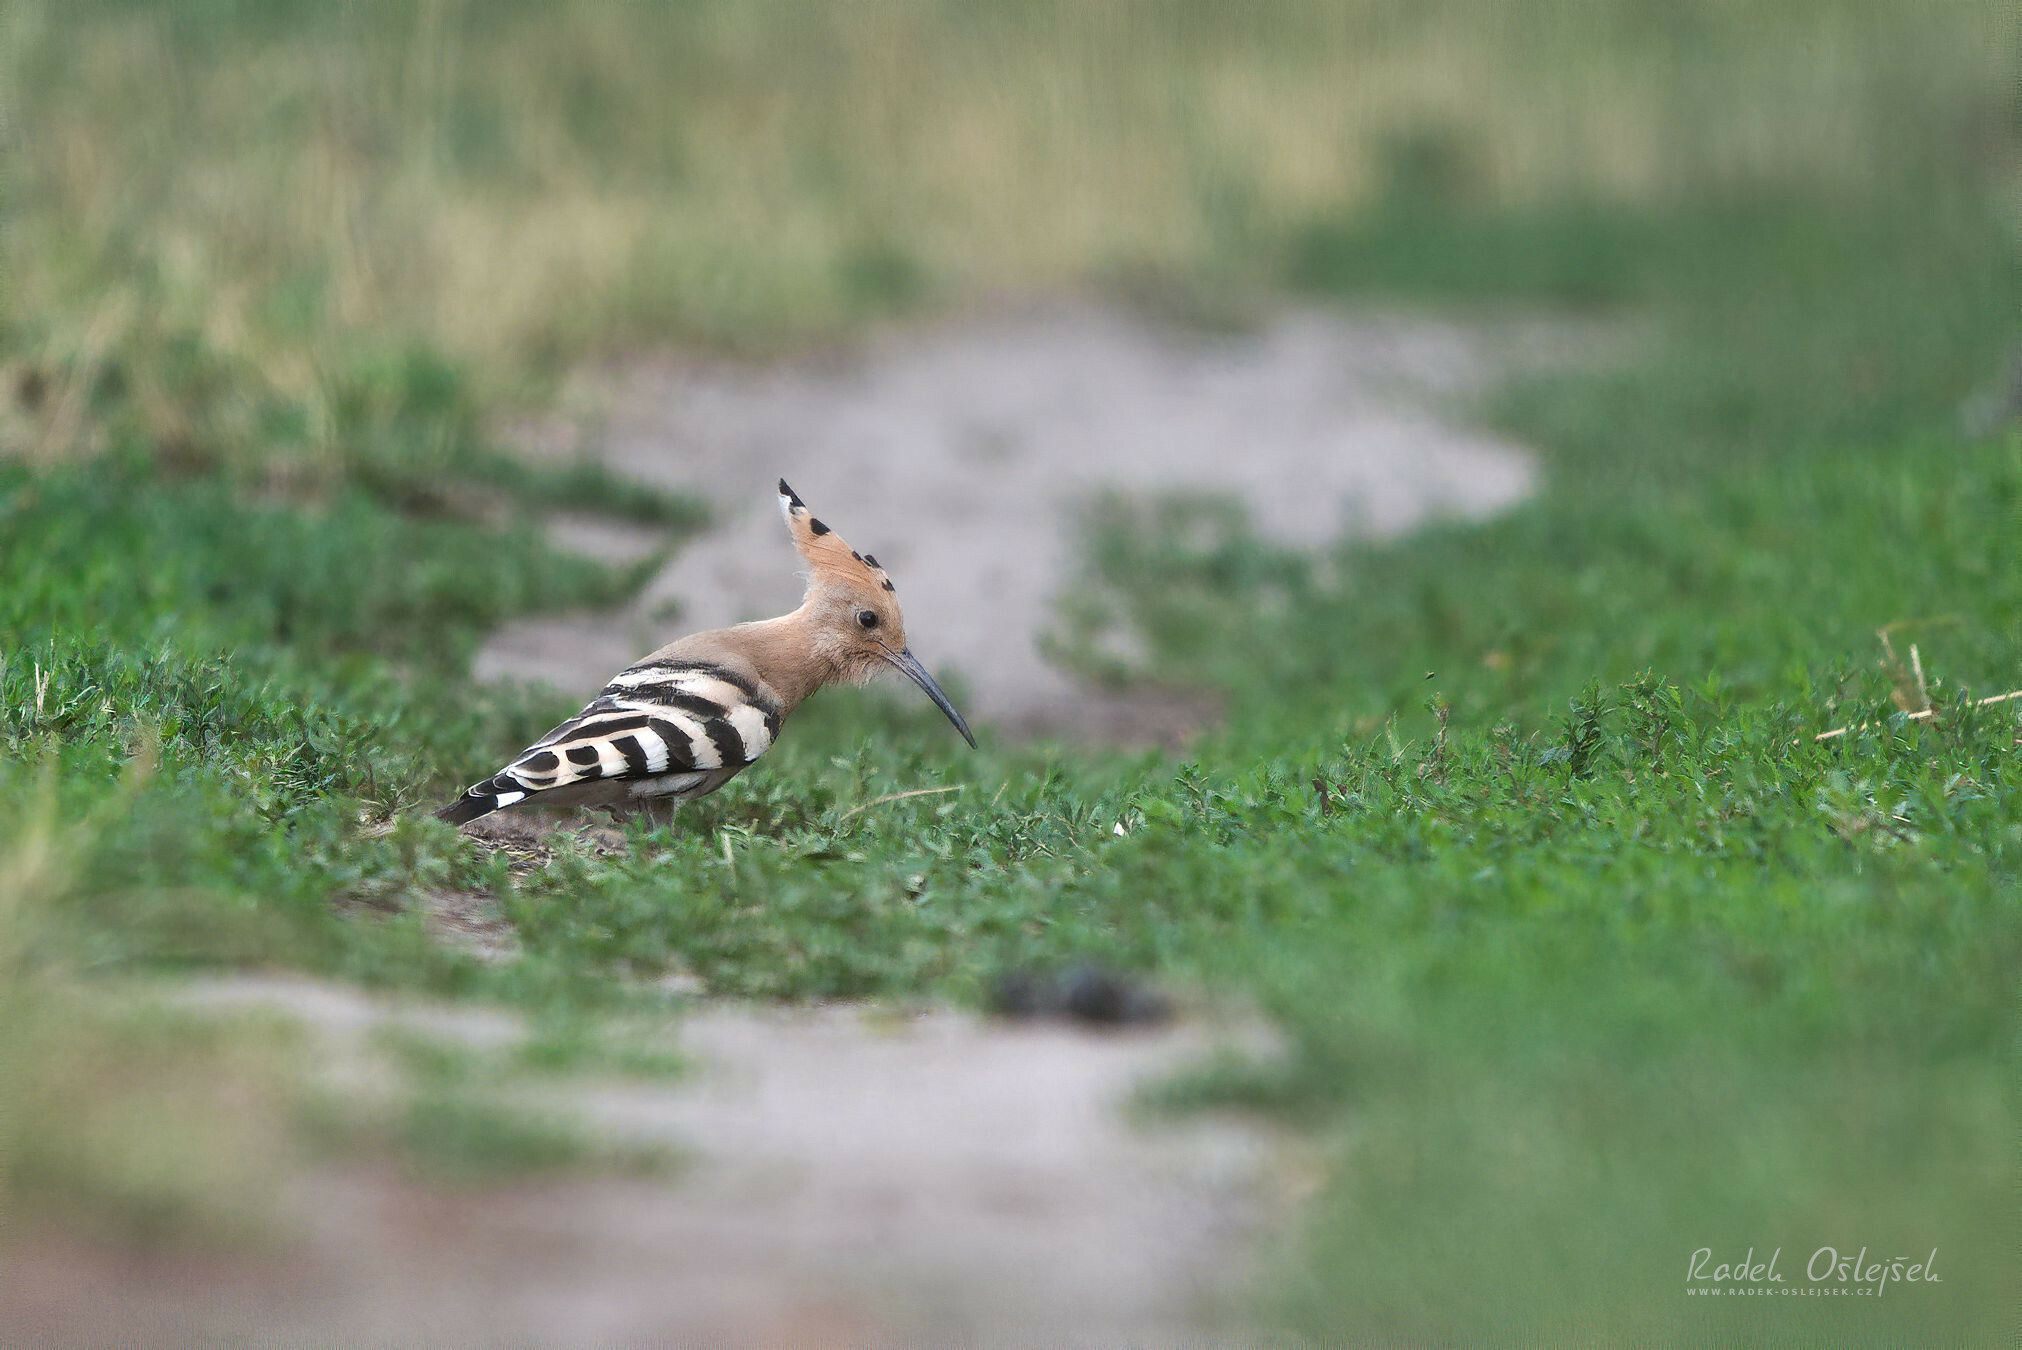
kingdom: Animalia
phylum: Chordata
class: Aves
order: Bucerotiformes
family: Upupidae
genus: Upupa
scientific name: Upupa epops
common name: Eurasian hoopoe
